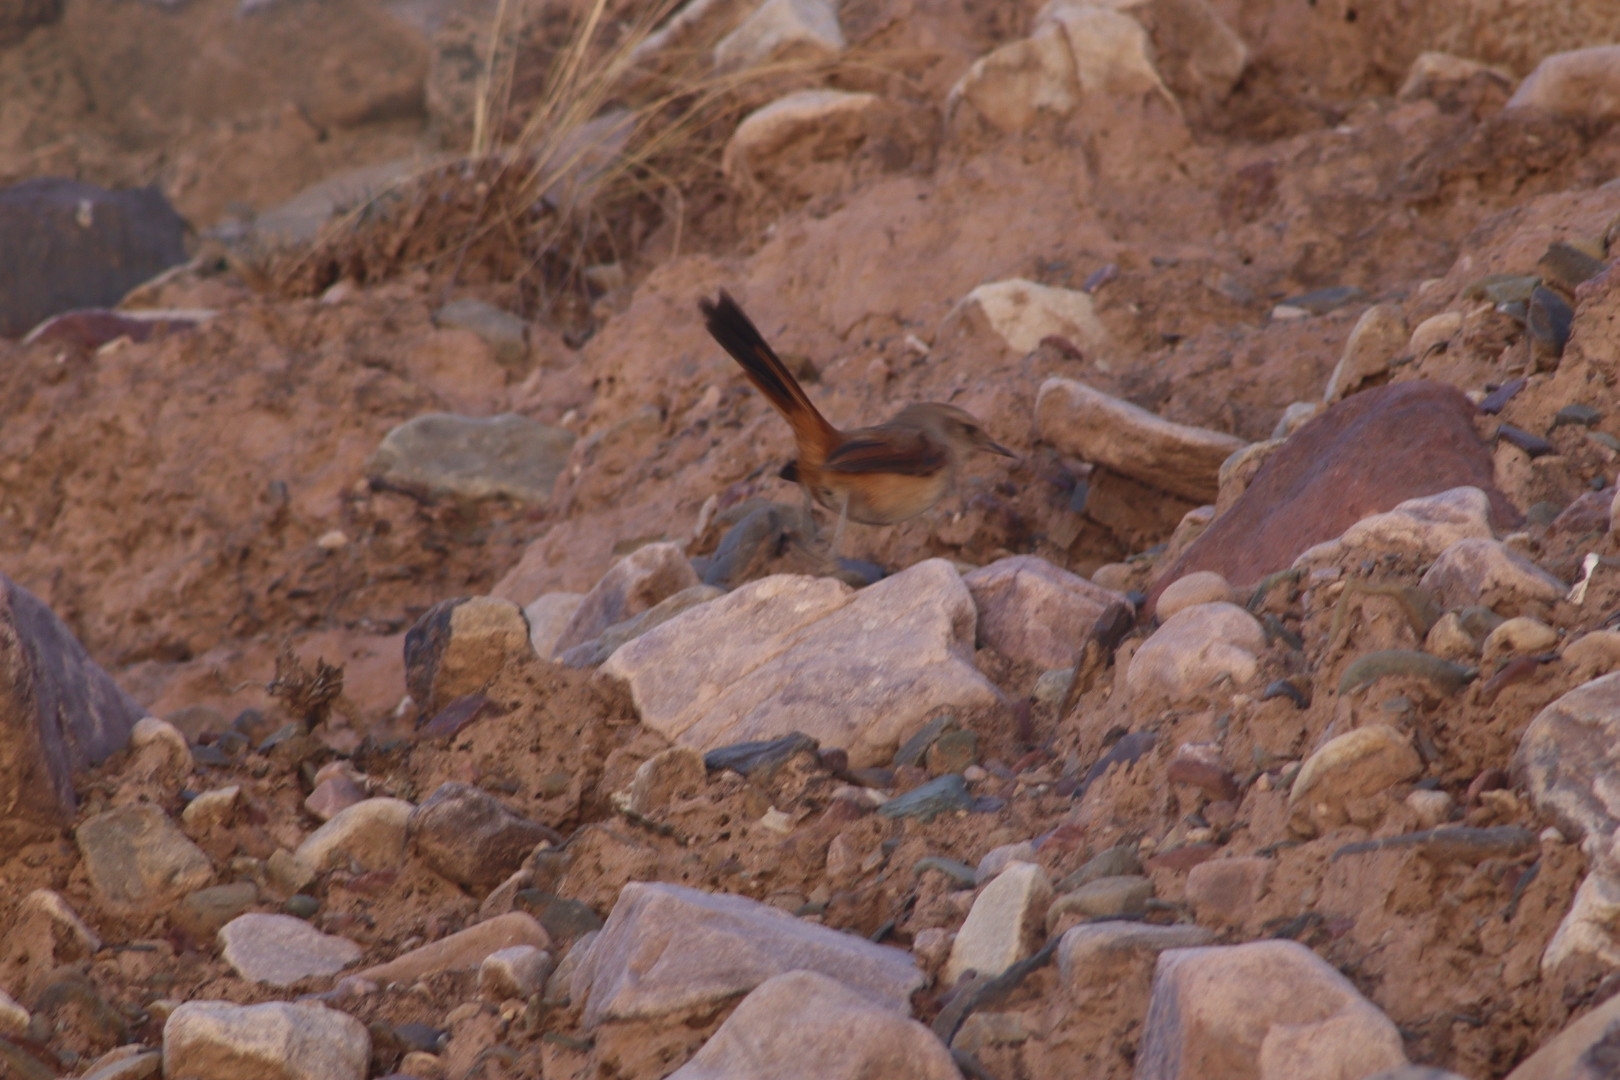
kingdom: Animalia
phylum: Chordata
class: Aves
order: Passeriformes
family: Furnariidae
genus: Asthenes
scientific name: Asthenes dorbignyi
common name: Rusty-vented canastero
